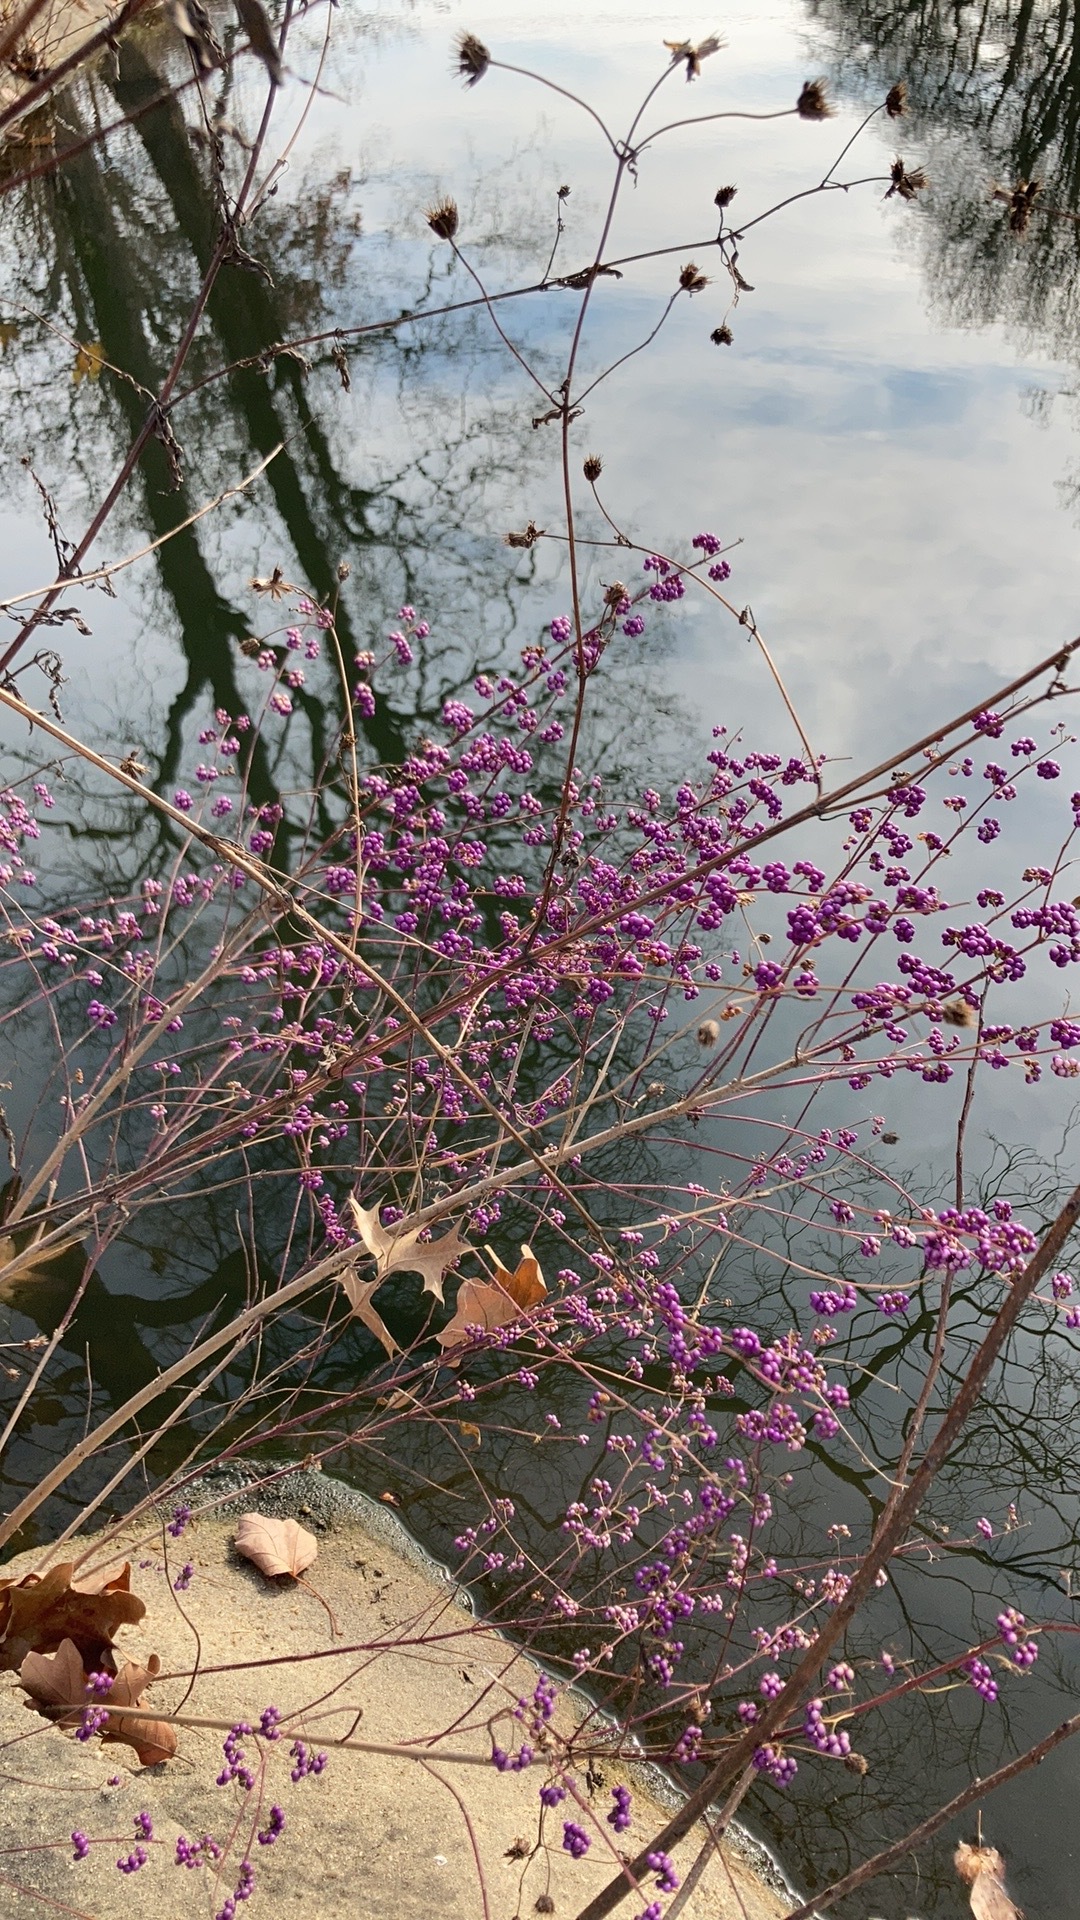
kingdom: Plantae
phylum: Tracheophyta
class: Magnoliopsida
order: Lamiales
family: Lamiaceae
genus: Callicarpa
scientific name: Callicarpa dichotoma
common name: Purple beauty-berry
